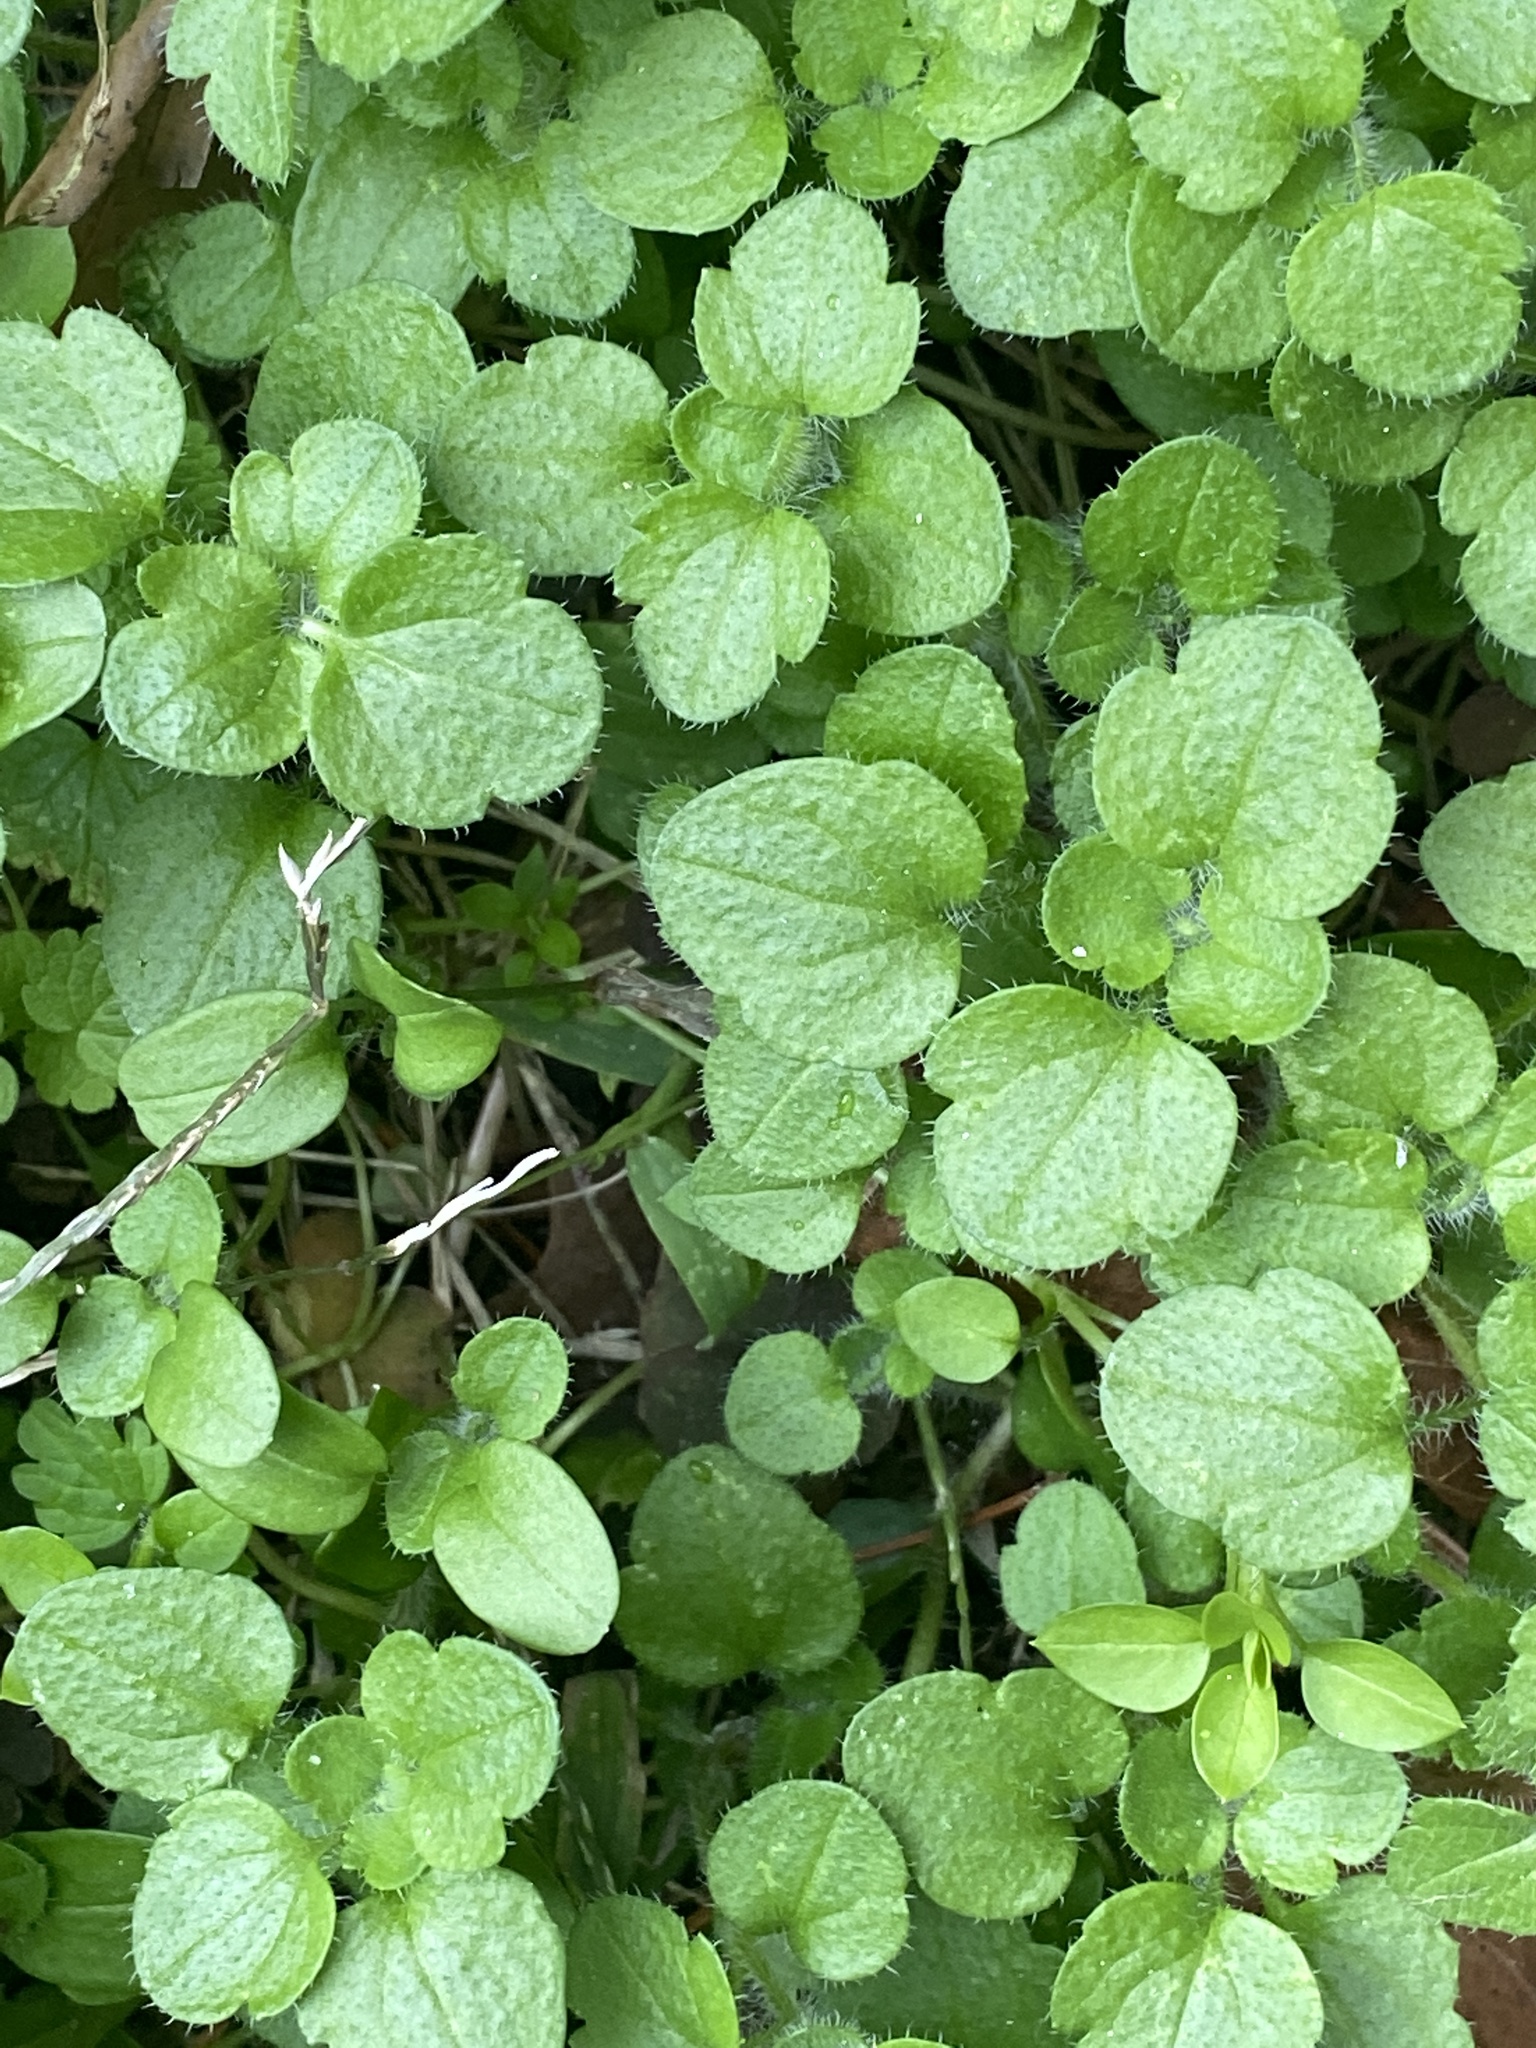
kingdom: Plantae
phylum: Tracheophyta
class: Magnoliopsida
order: Lamiales
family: Plantaginaceae
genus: Veronica
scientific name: Veronica hederifolia
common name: Ivy-leaved speedwell
